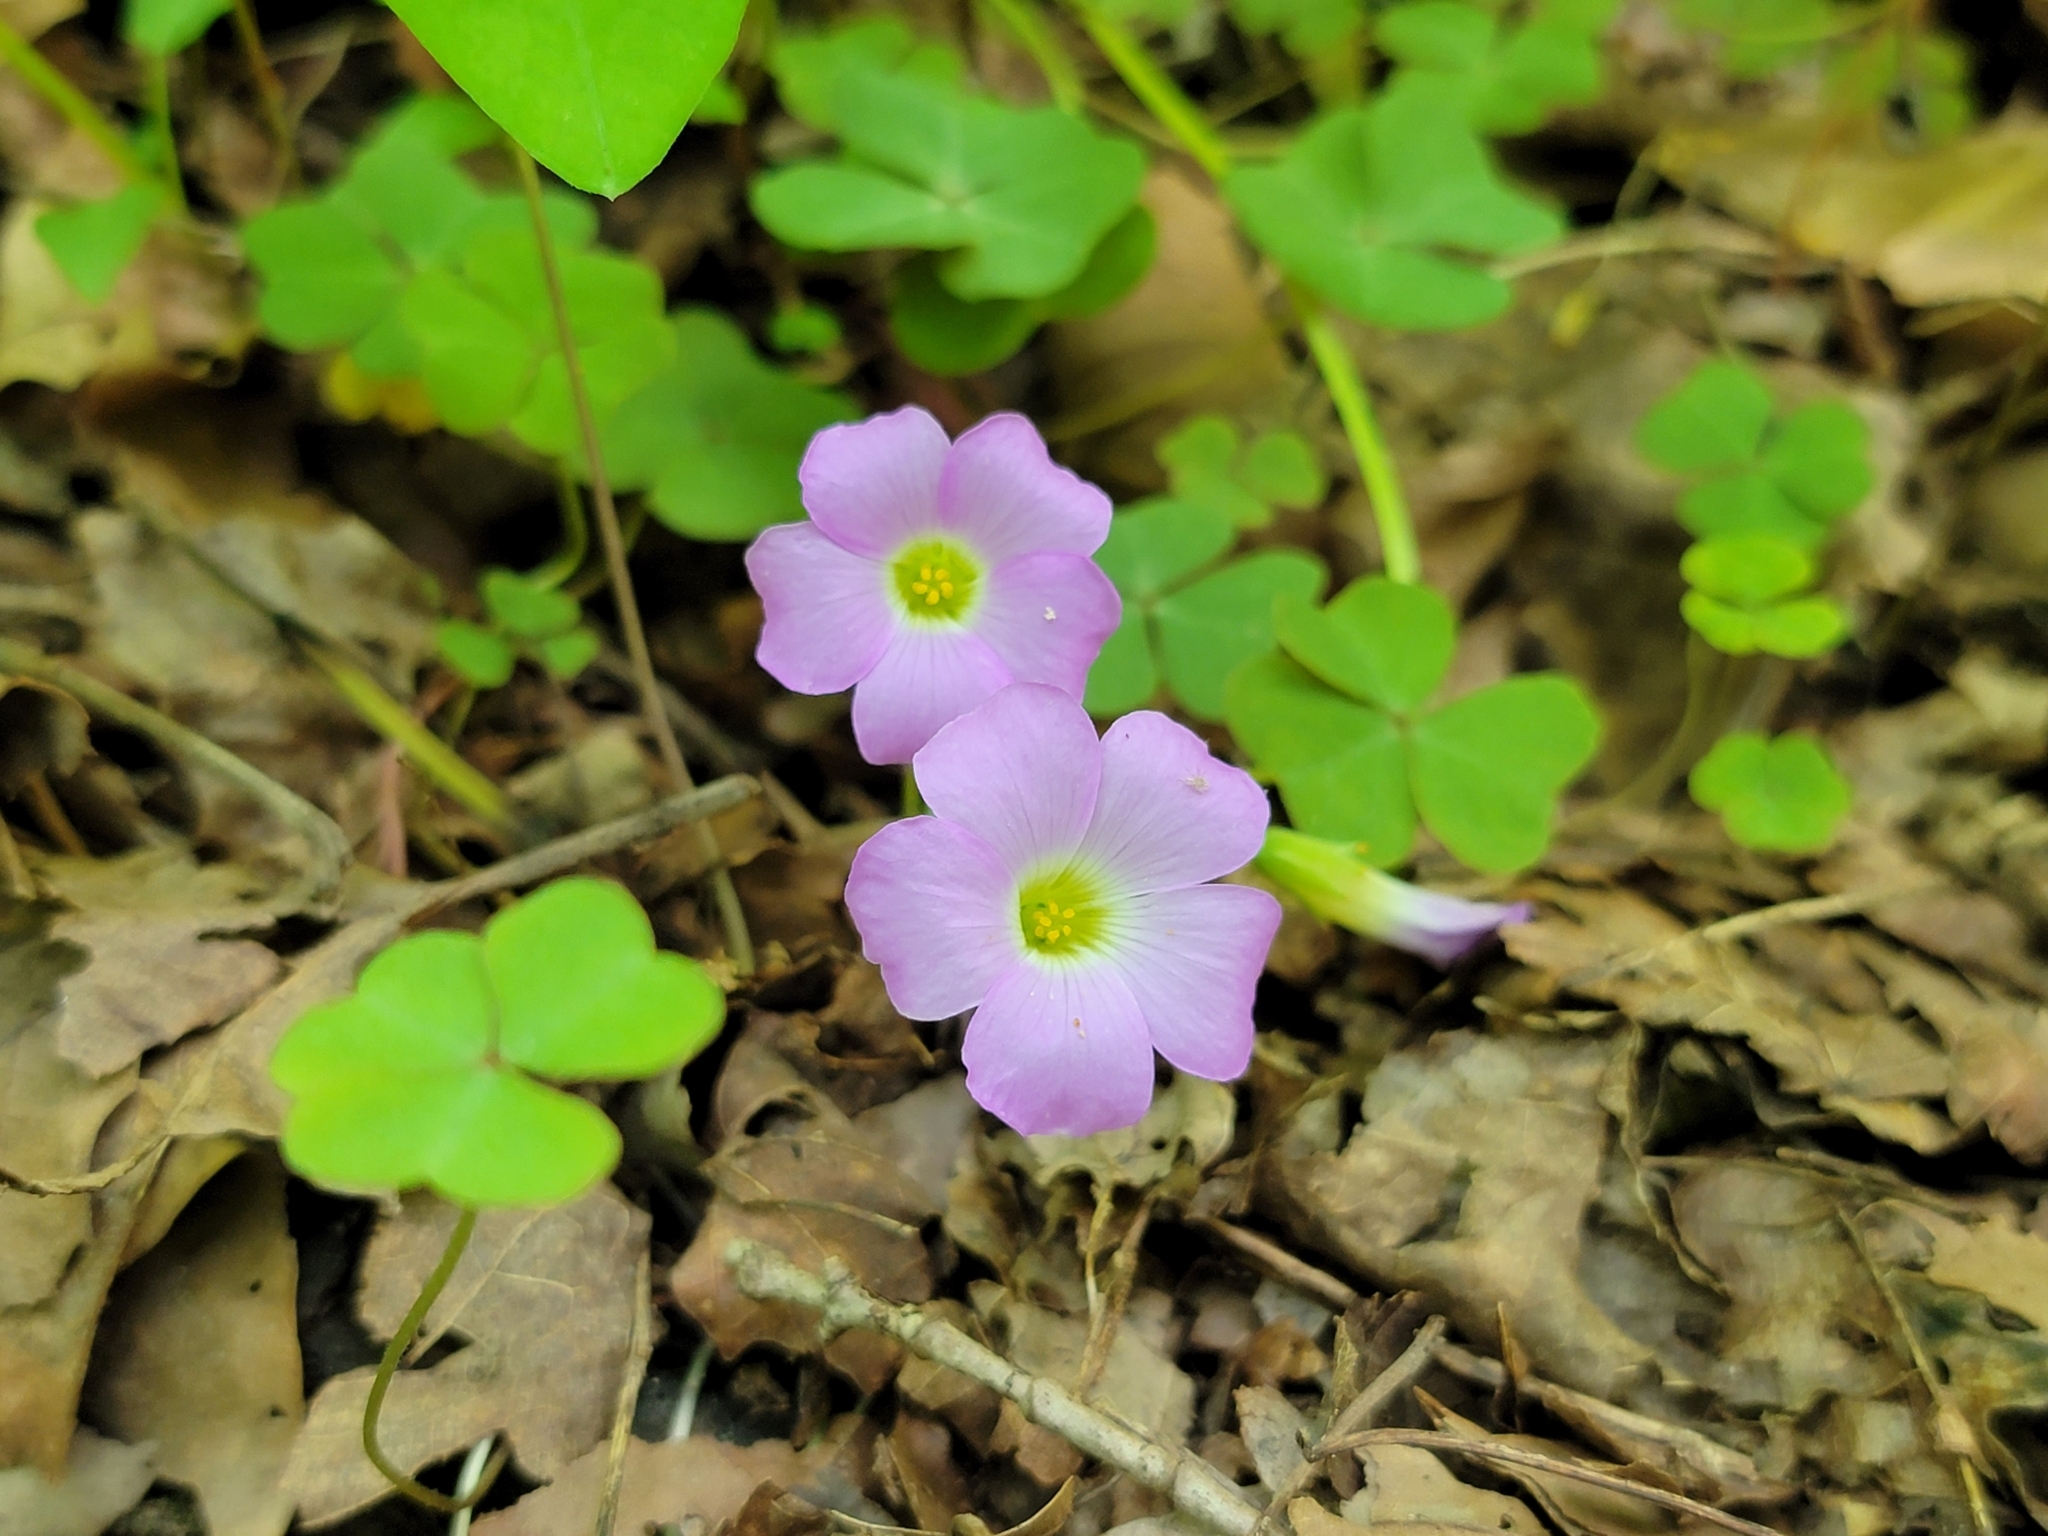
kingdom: Plantae
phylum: Tracheophyta
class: Magnoliopsida
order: Oxalidales
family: Oxalidaceae
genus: Oxalis
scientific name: Oxalis violacea
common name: Violet wood-sorrel
